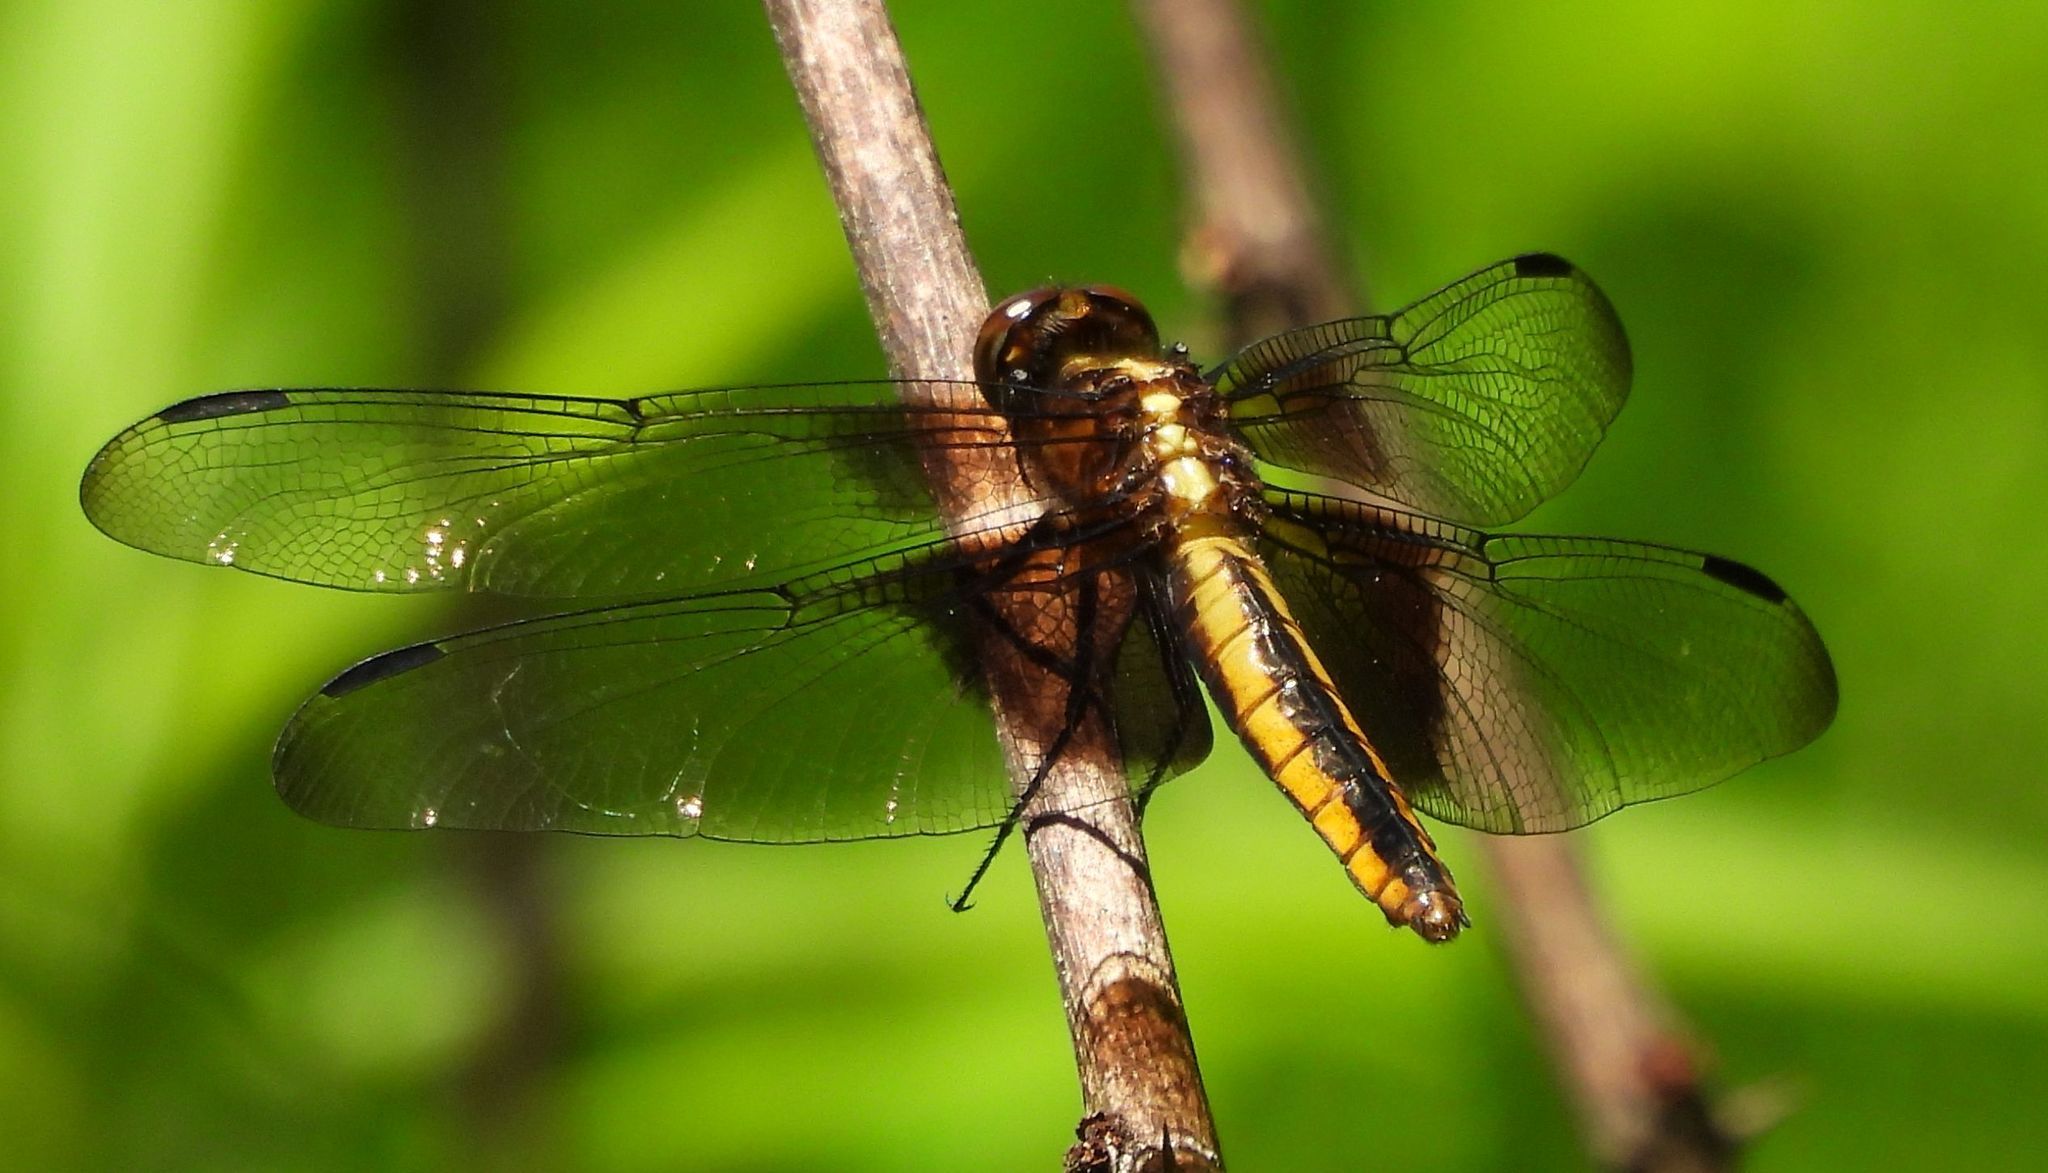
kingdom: Animalia
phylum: Arthropoda
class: Insecta
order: Odonata
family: Libellulidae
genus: Libellula
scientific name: Libellula luctuosa
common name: Widow skimmer
